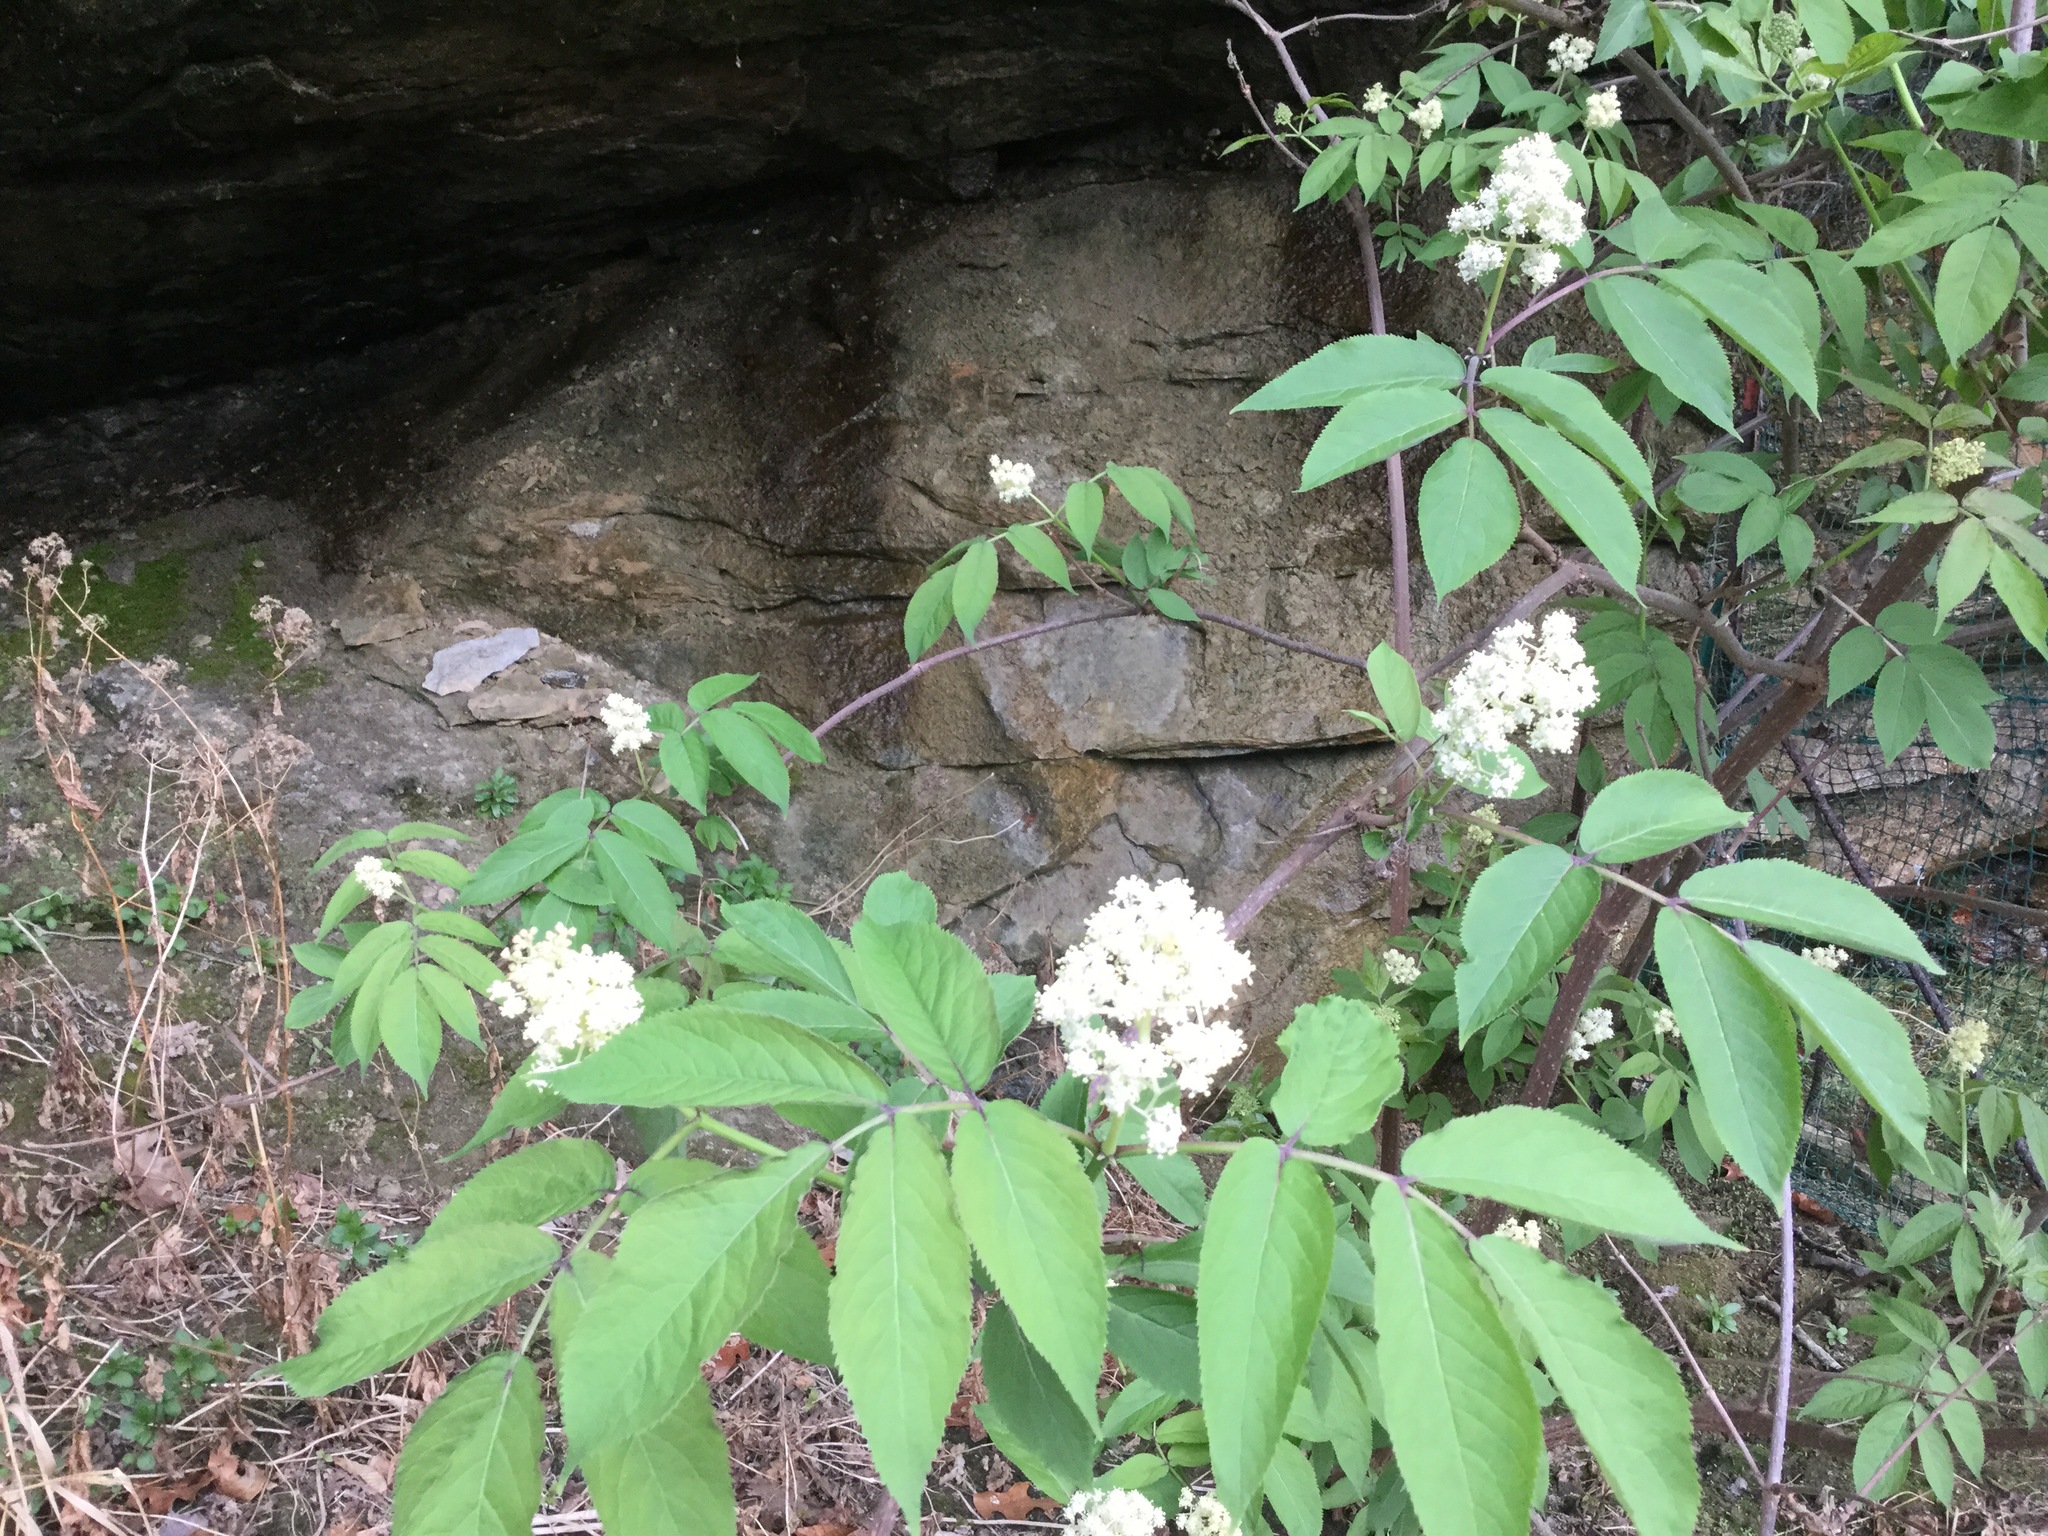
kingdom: Plantae
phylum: Tracheophyta
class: Magnoliopsida
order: Dipsacales
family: Viburnaceae
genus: Sambucus
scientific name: Sambucus racemosa
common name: Red-berried elder
